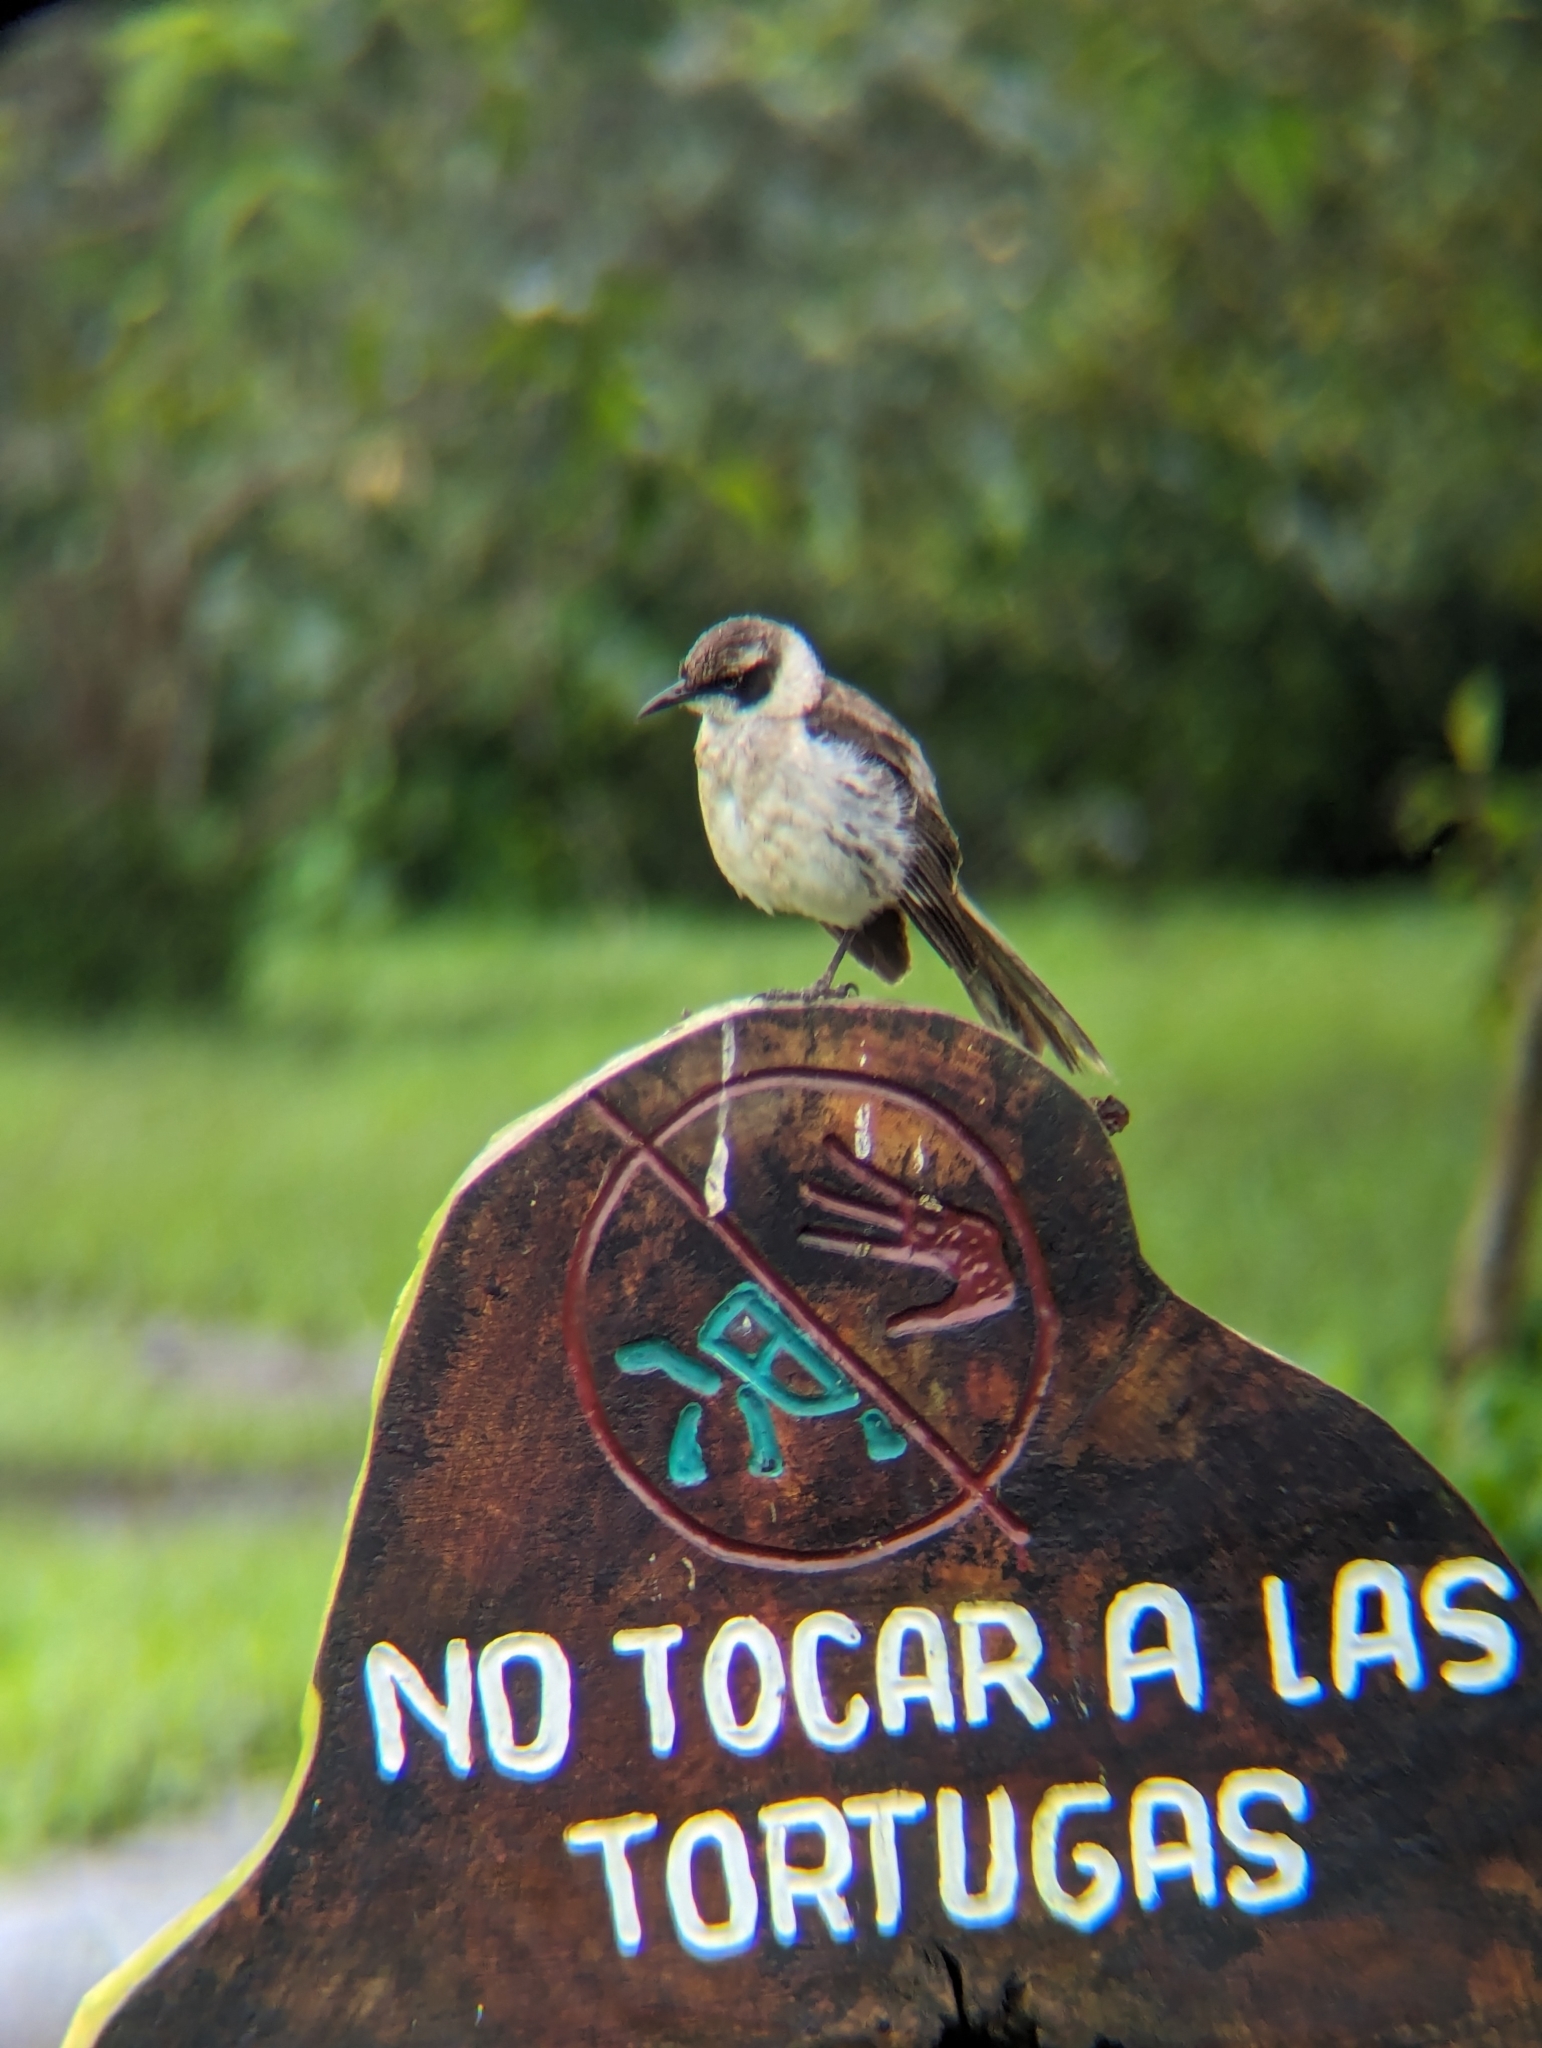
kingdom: Animalia
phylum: Chordata
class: Aves
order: Passeriformes
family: Mimidae
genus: Mimus
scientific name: Mimus parvulus
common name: Galapagos mockingbird
